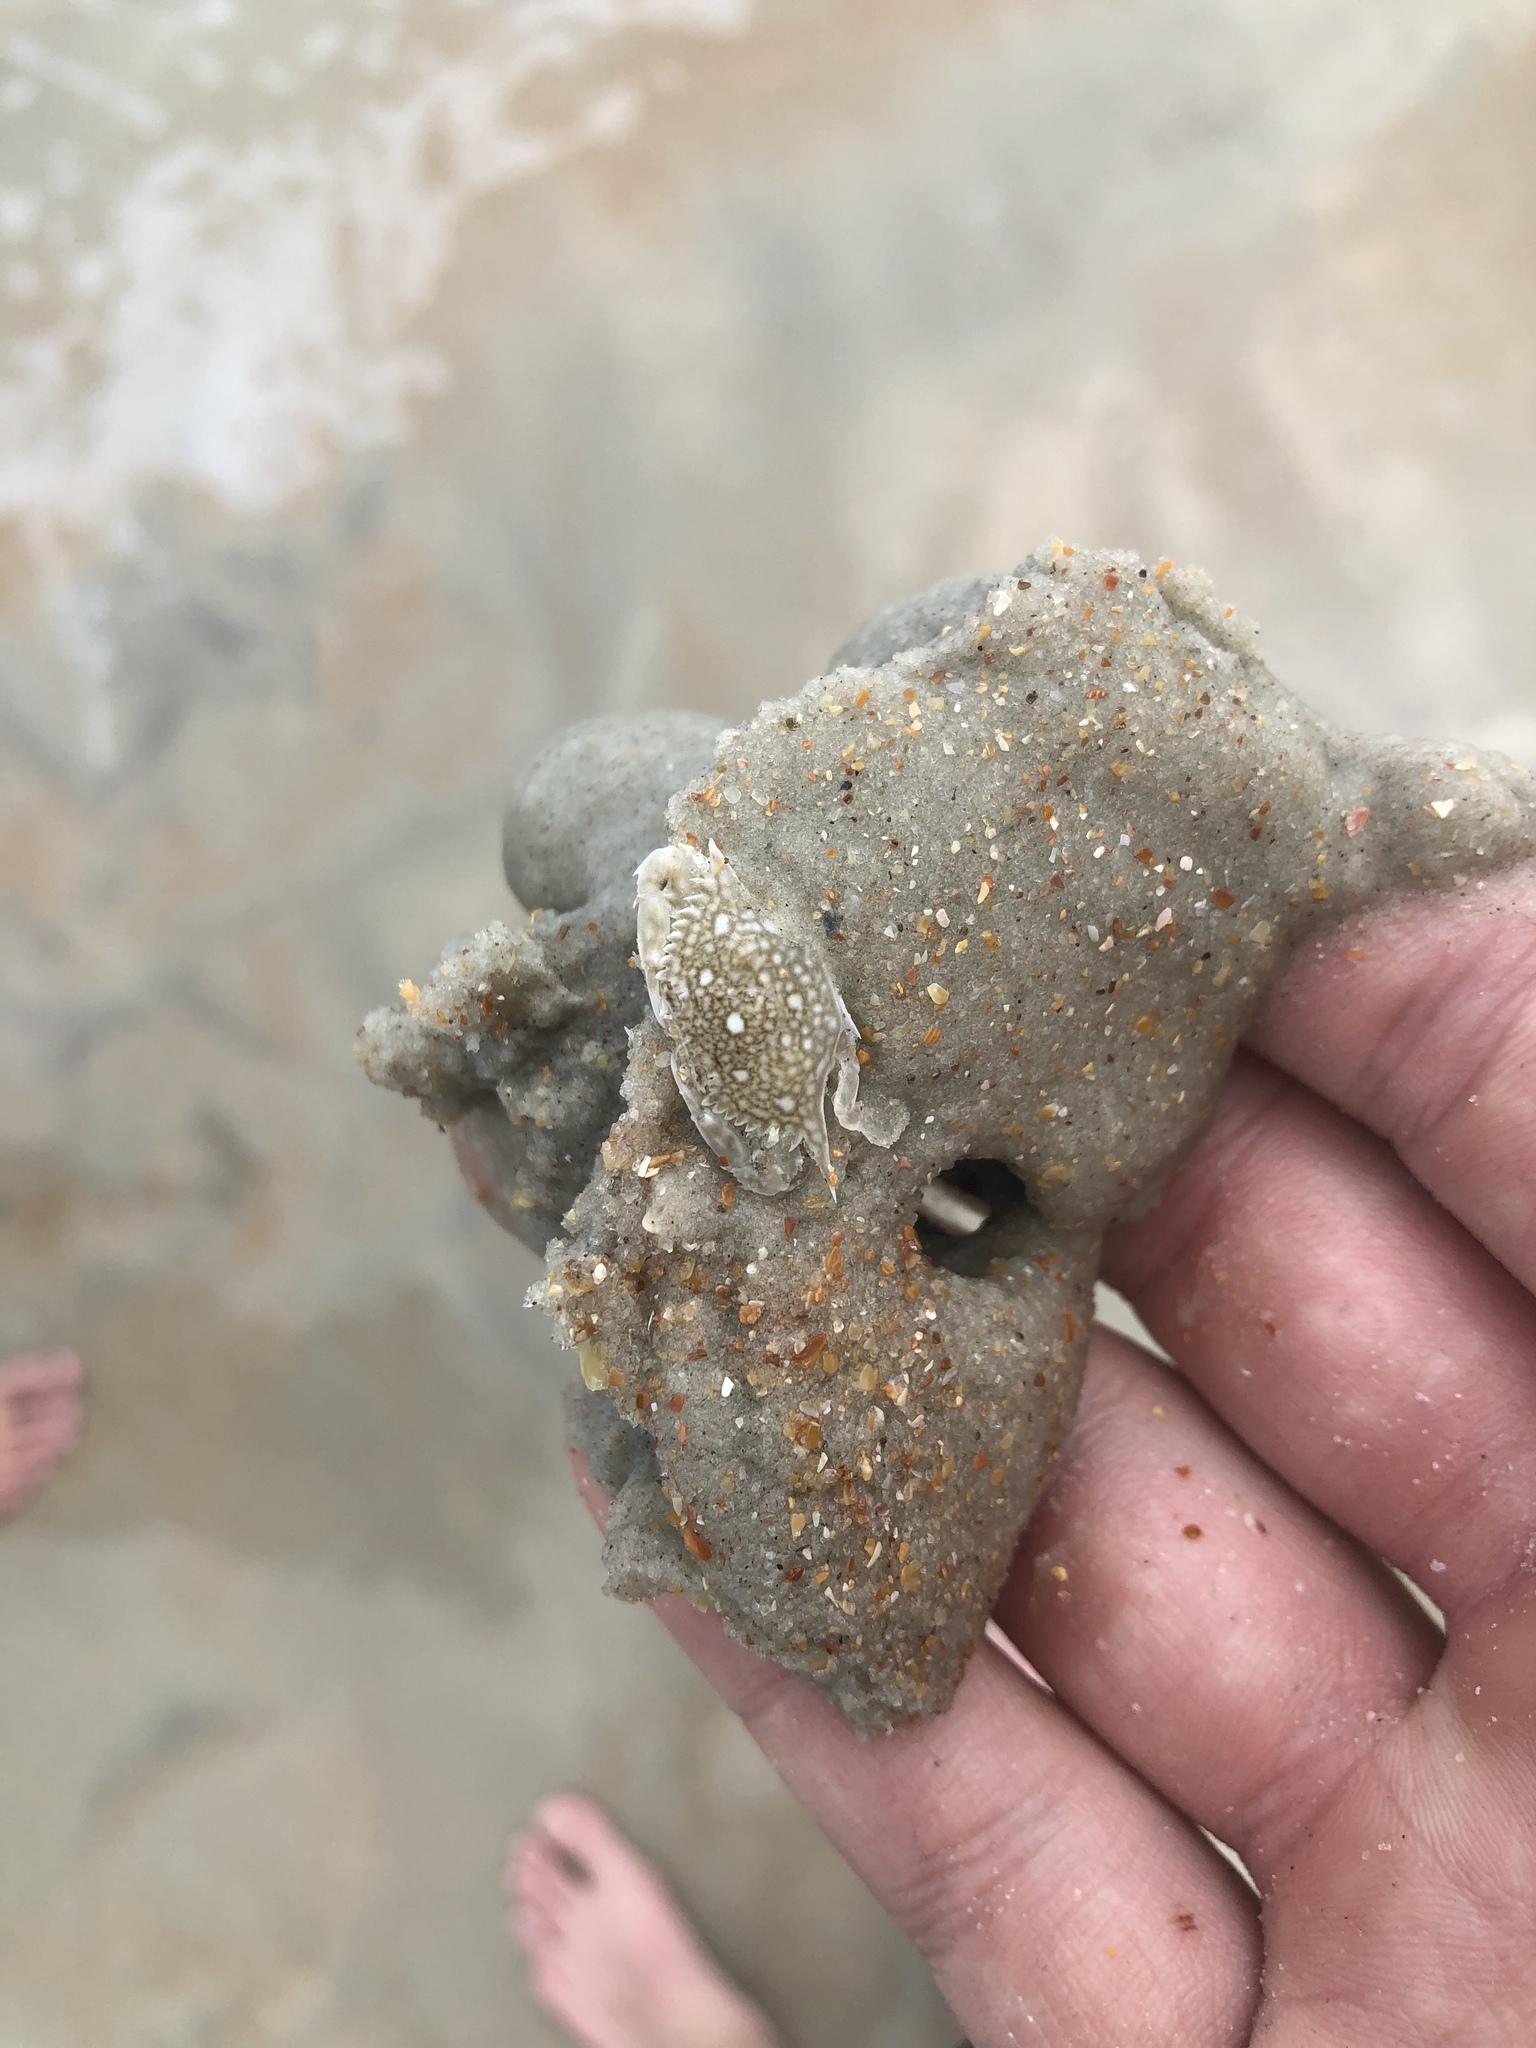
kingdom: Animalia
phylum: Arthropoda
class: Malacostraca
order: Decapoda
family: Portunidae
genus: Arenaeus
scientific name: Arenaeus cribrarius
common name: Speckled crab
